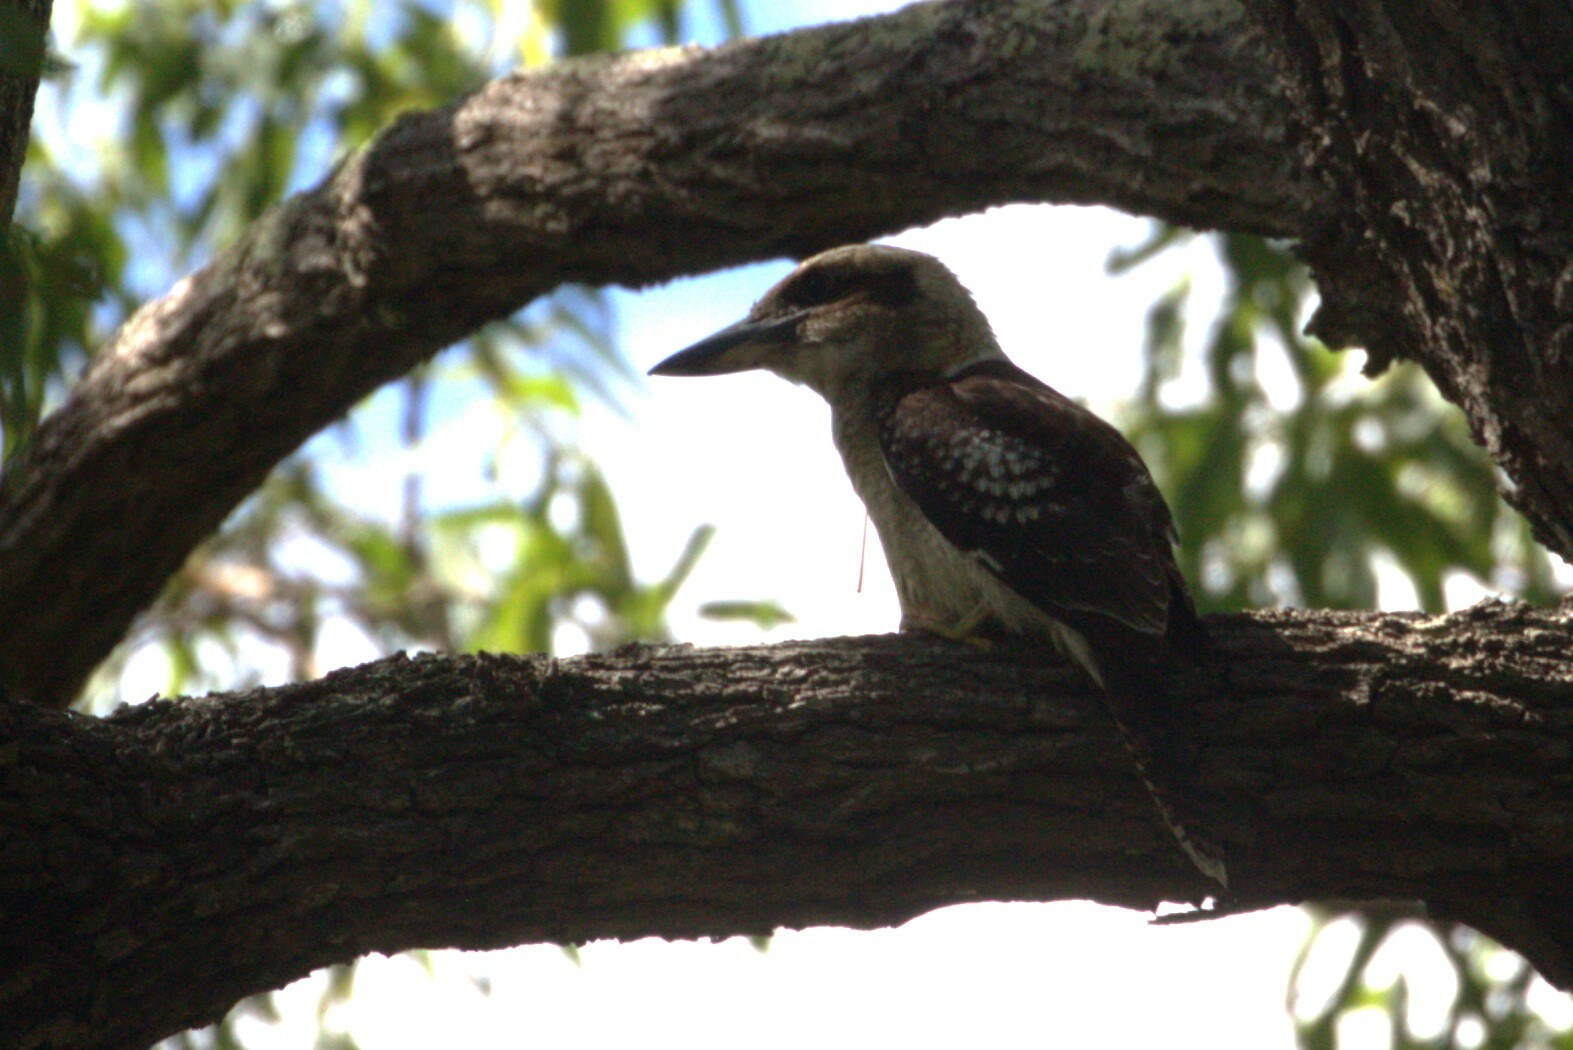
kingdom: Animalia
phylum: Chordata
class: Aves
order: Coraciiformes
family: Alcedinidae
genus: Dacelo
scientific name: Dacelo novaeguineae
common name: Laughing kookaburra
